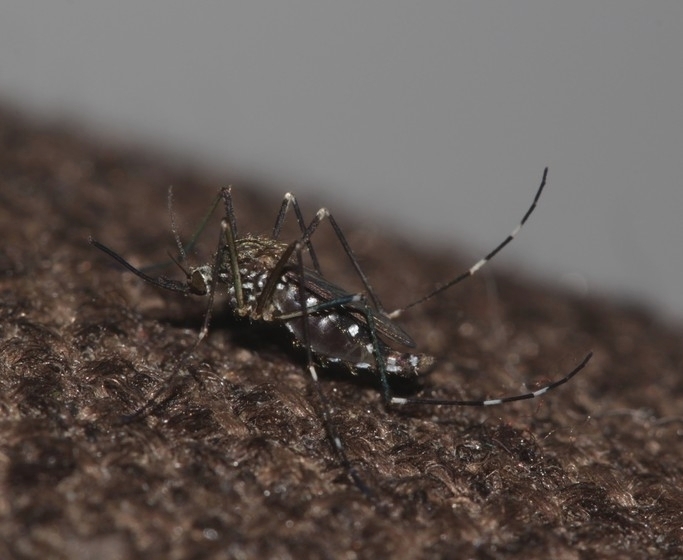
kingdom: Animalia
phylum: Arthropoda
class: Insecta
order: Diptera
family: Culicidae
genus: Aedes
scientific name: Aedes japonicus
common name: Asian bush mosquito
